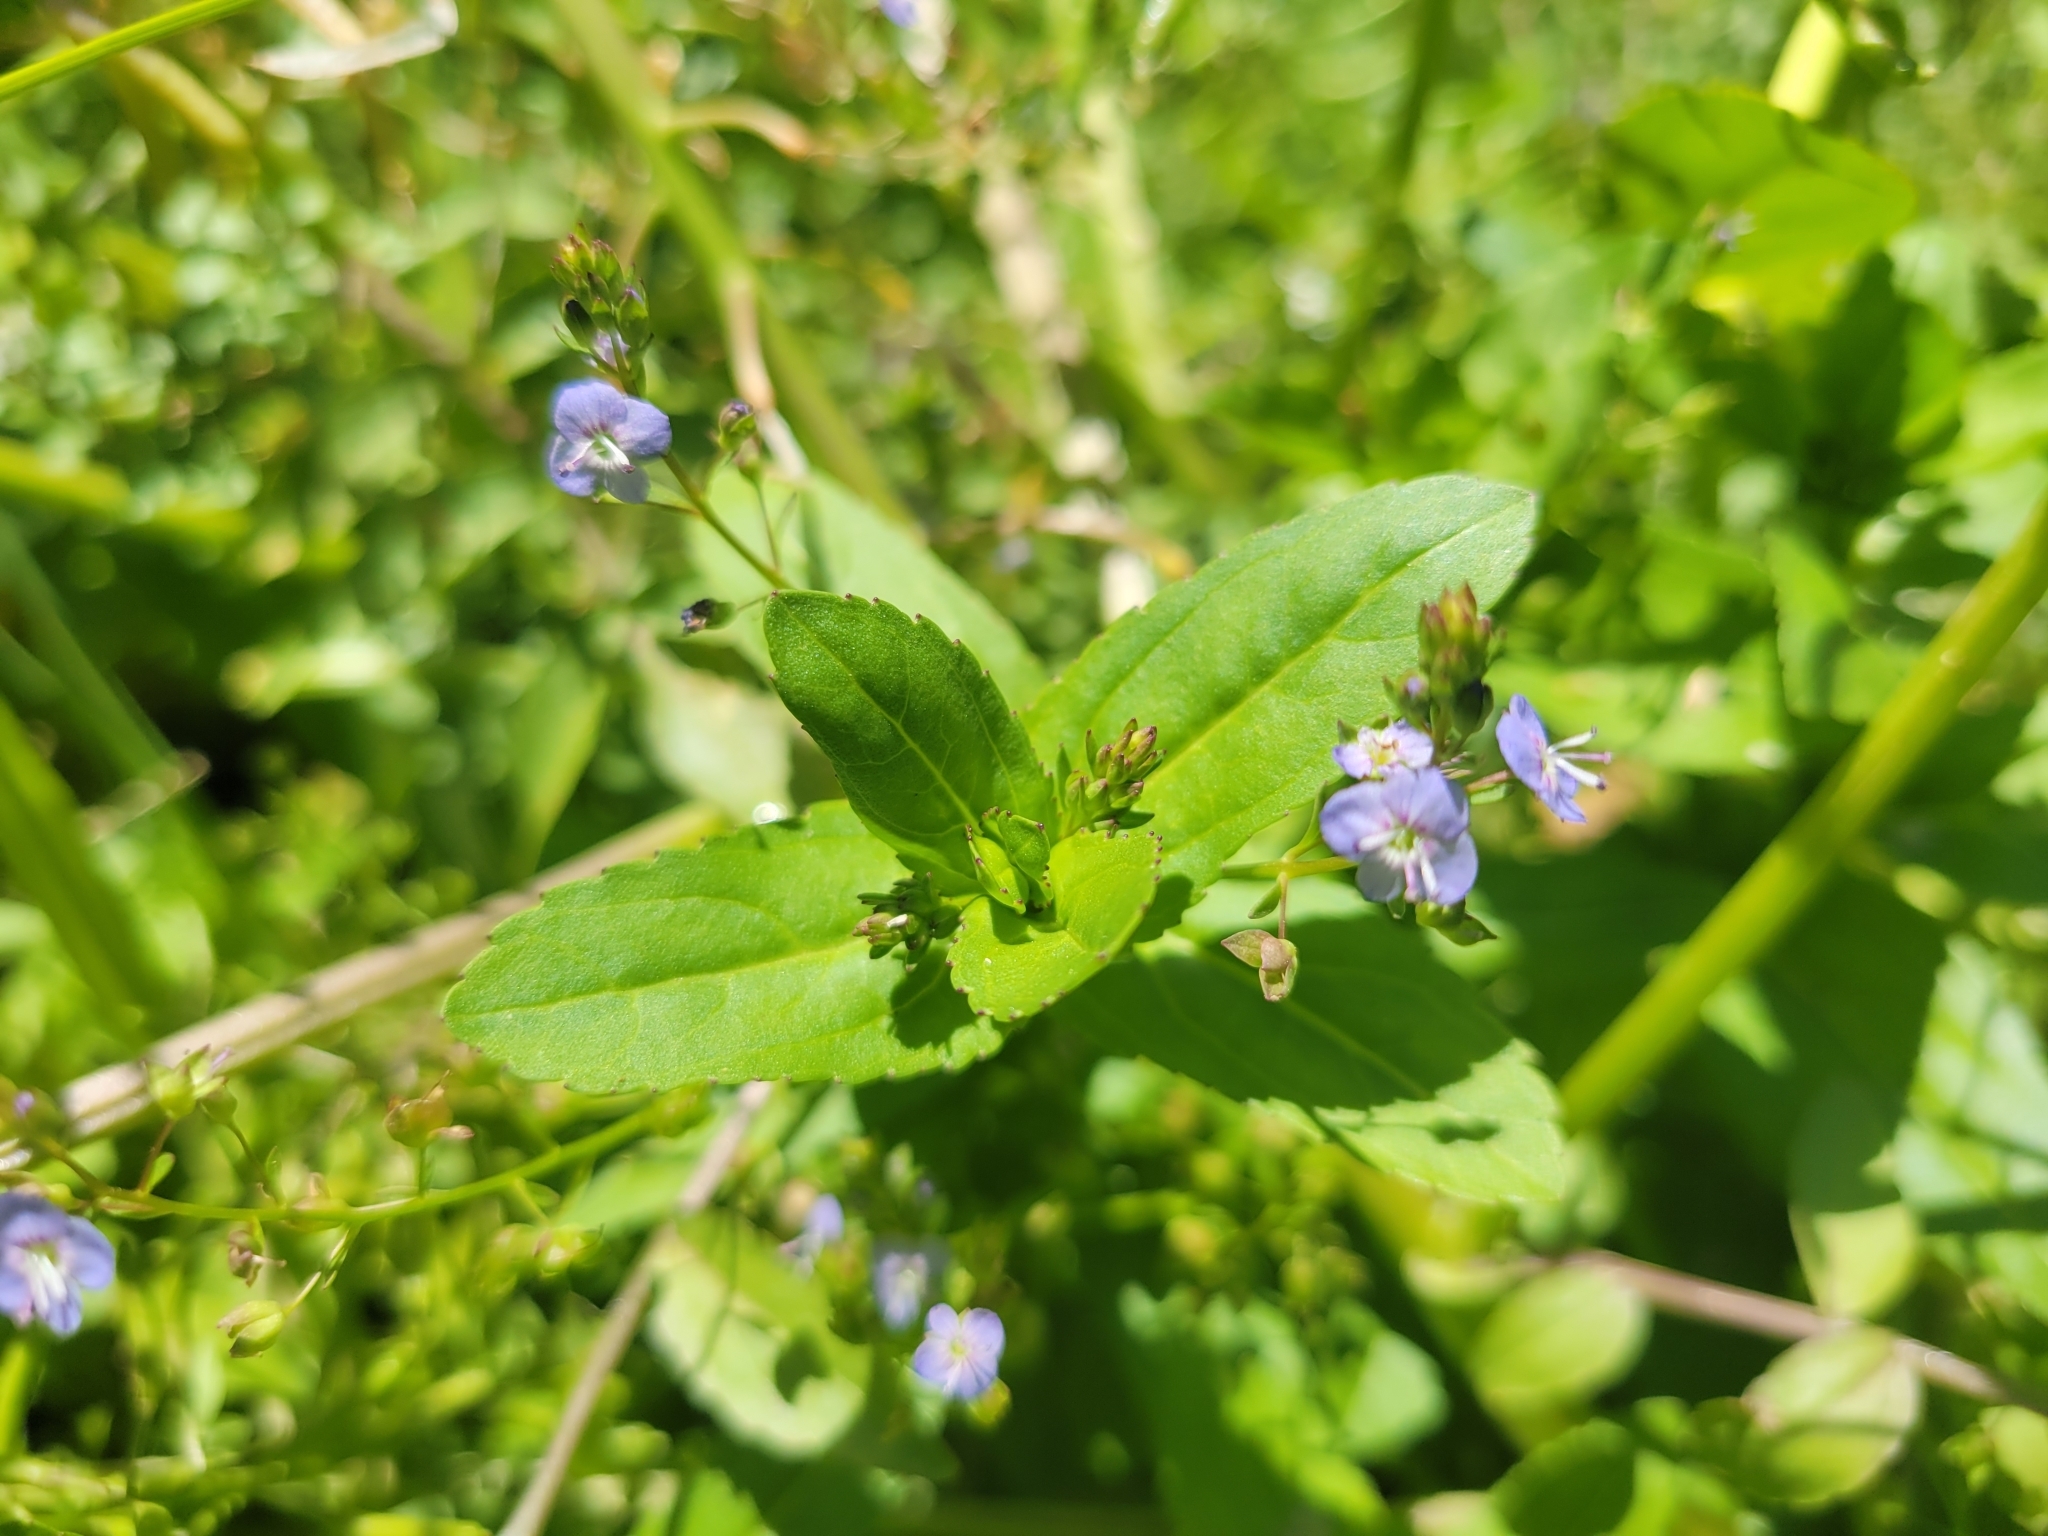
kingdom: Plantae
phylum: Tracheophyta
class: Magnoliopsida
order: Lamiales
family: Plantaginaceae
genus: Veronica
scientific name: Veronica americana
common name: American brooklime
